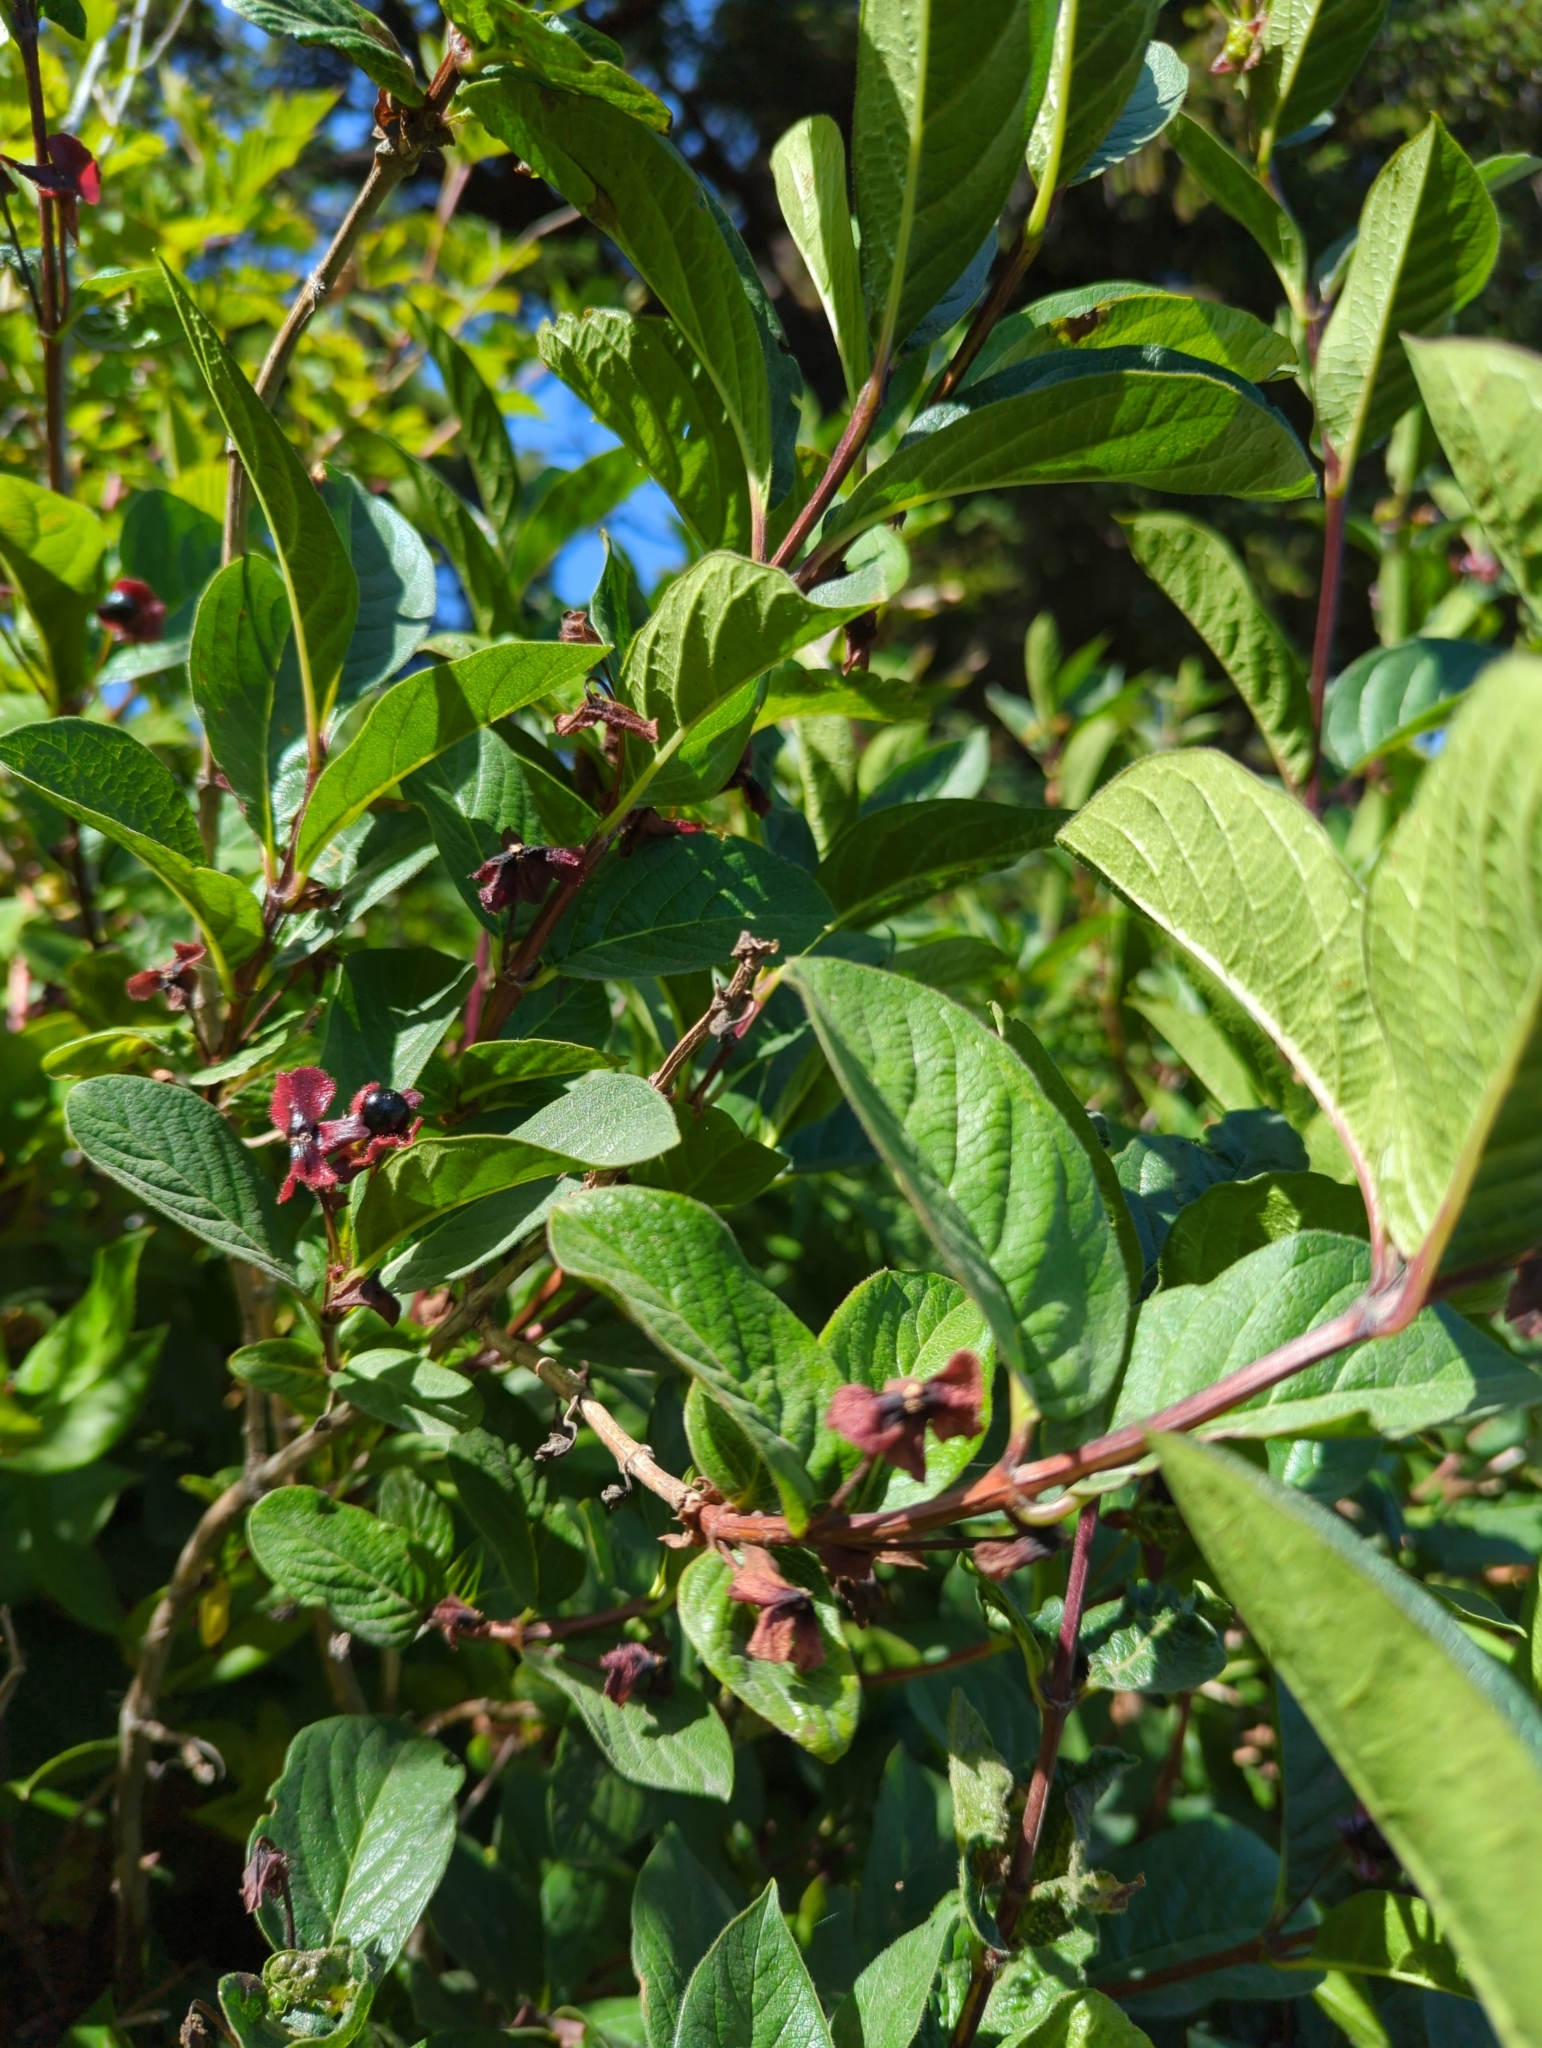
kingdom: Plantae
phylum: Tracheophyta
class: Magnoliopsida
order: Dipsacales
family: Caprifoliaceae
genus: Lonicera
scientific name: Lonicera involucrata
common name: Californian honeysuckle
